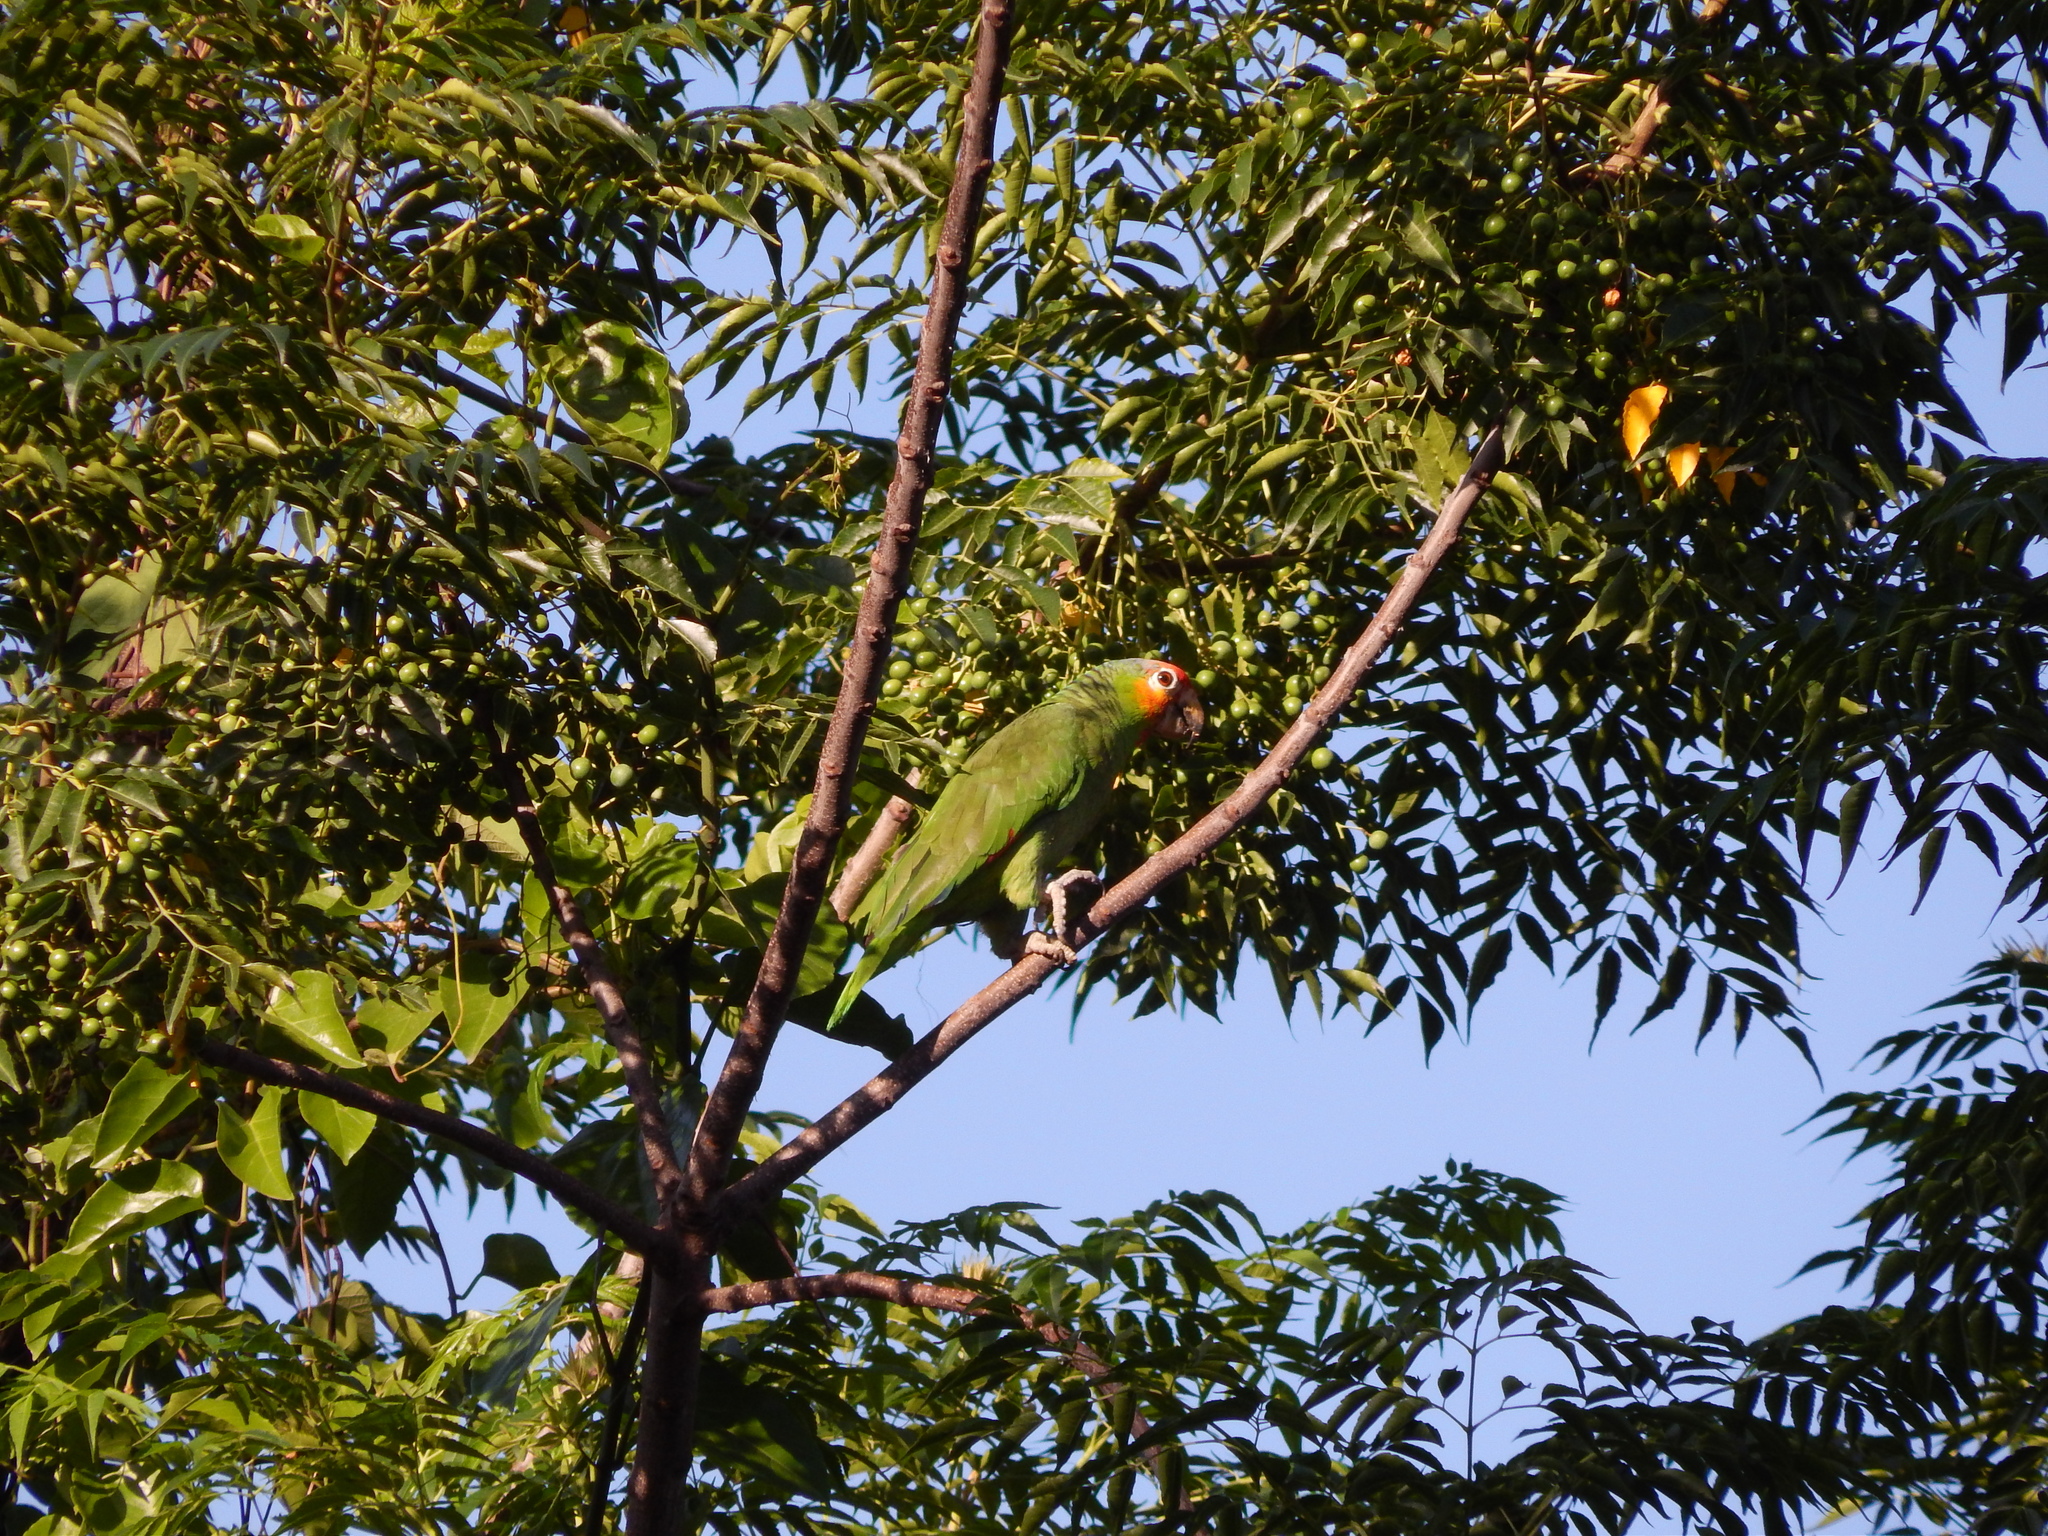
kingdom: Animalia
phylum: Chordata
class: Aves
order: Psittaciformes
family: Psittacidae
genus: Amazona
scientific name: Amazona autumnalis
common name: Red-lored amazon
